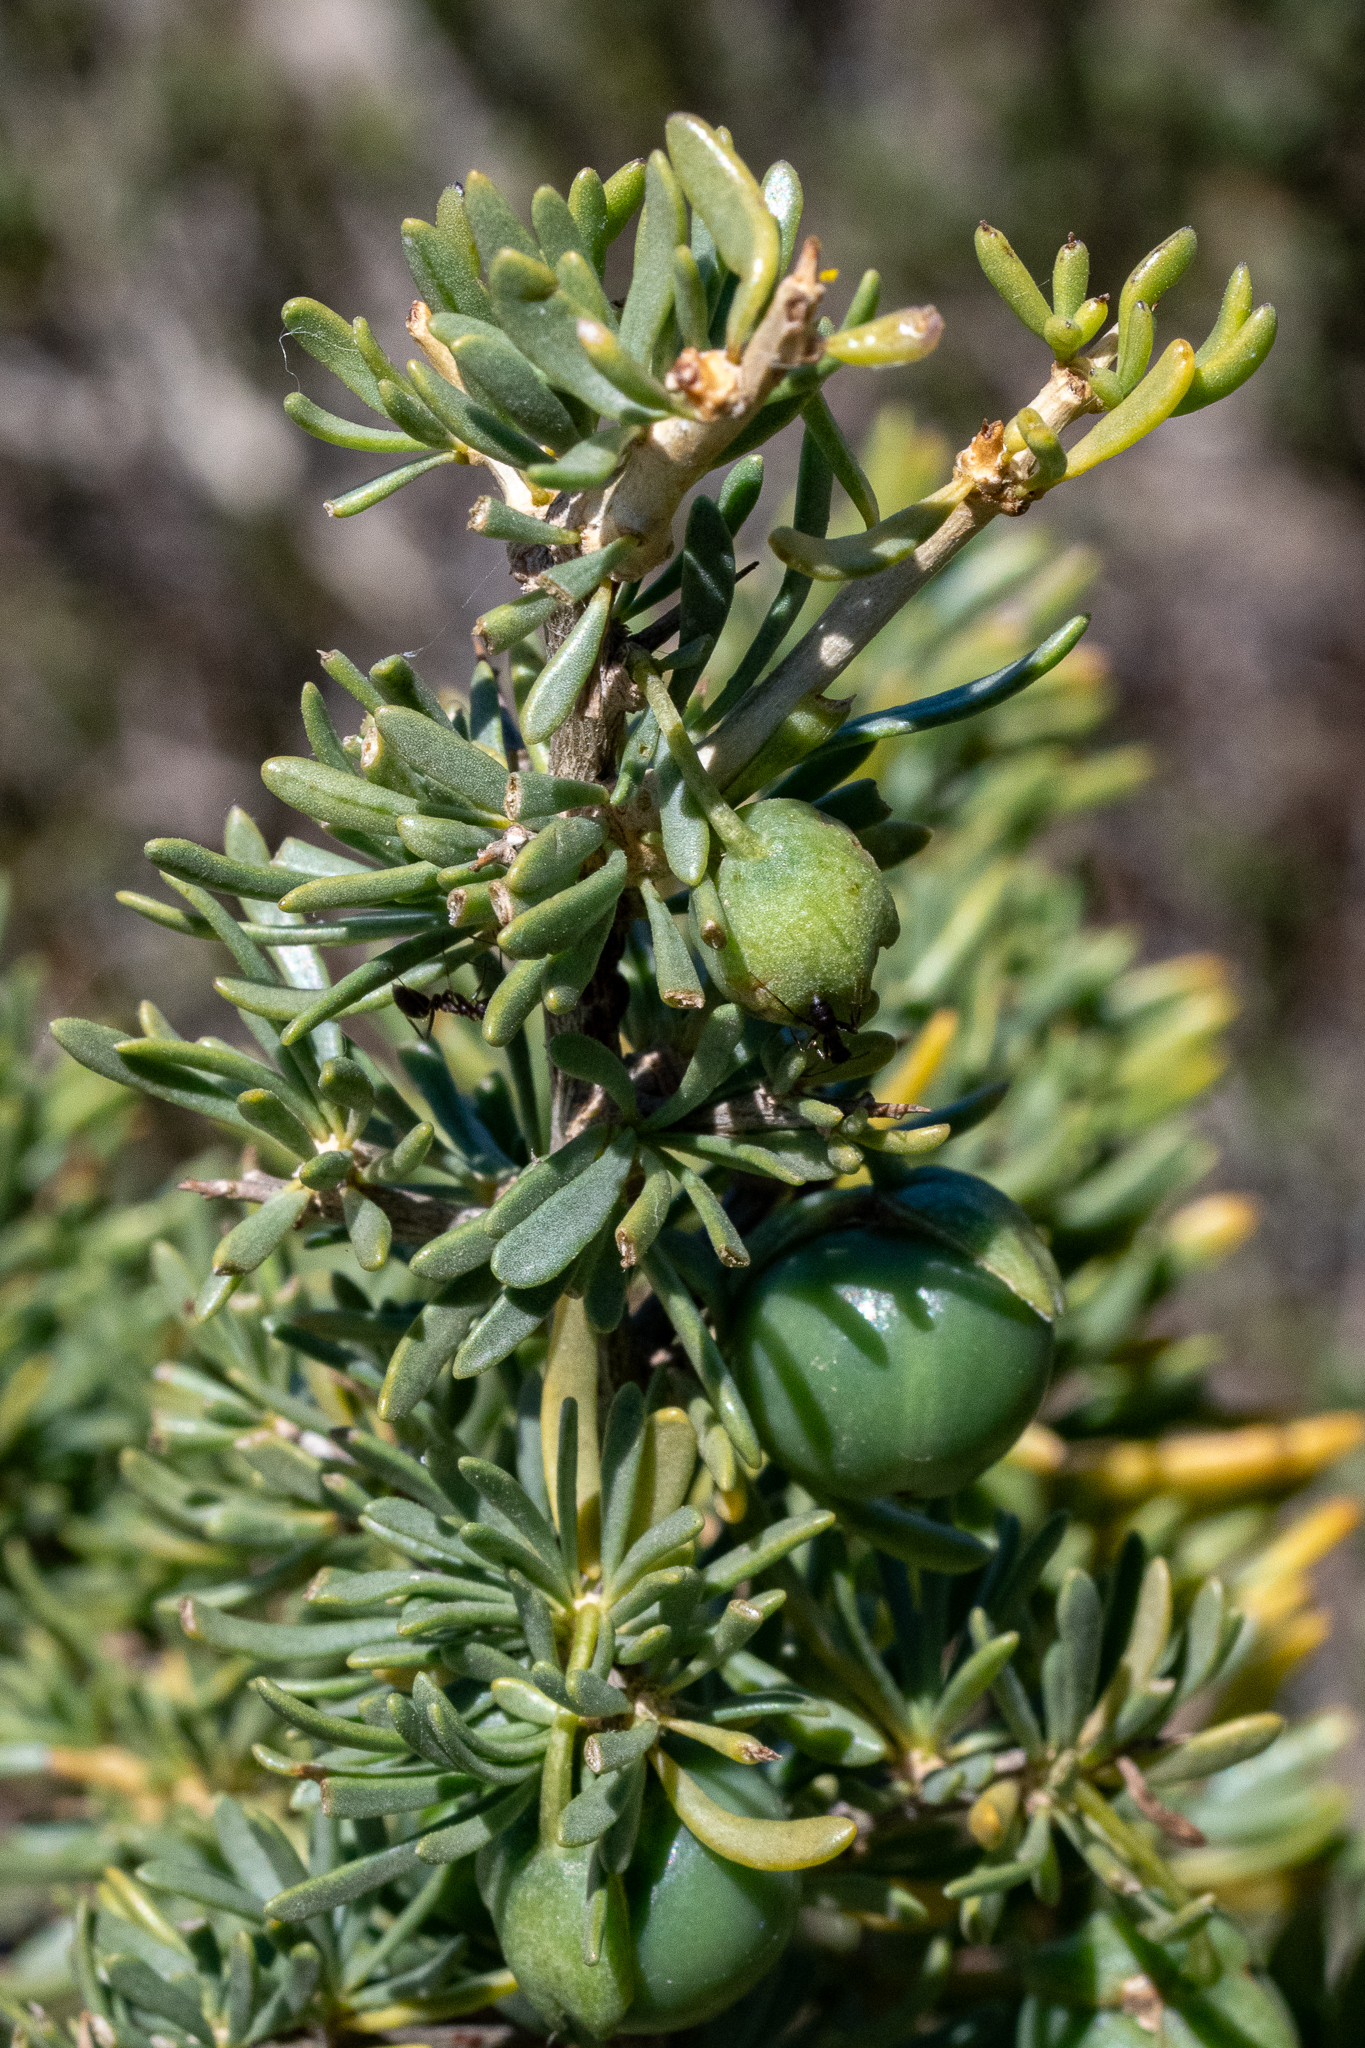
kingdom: Plantae
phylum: Tracheophyta
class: Magnoliopsida
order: Solanales
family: Solanaceae
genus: Lycium
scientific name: Lycium afrum
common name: Kaffir boxthorn
